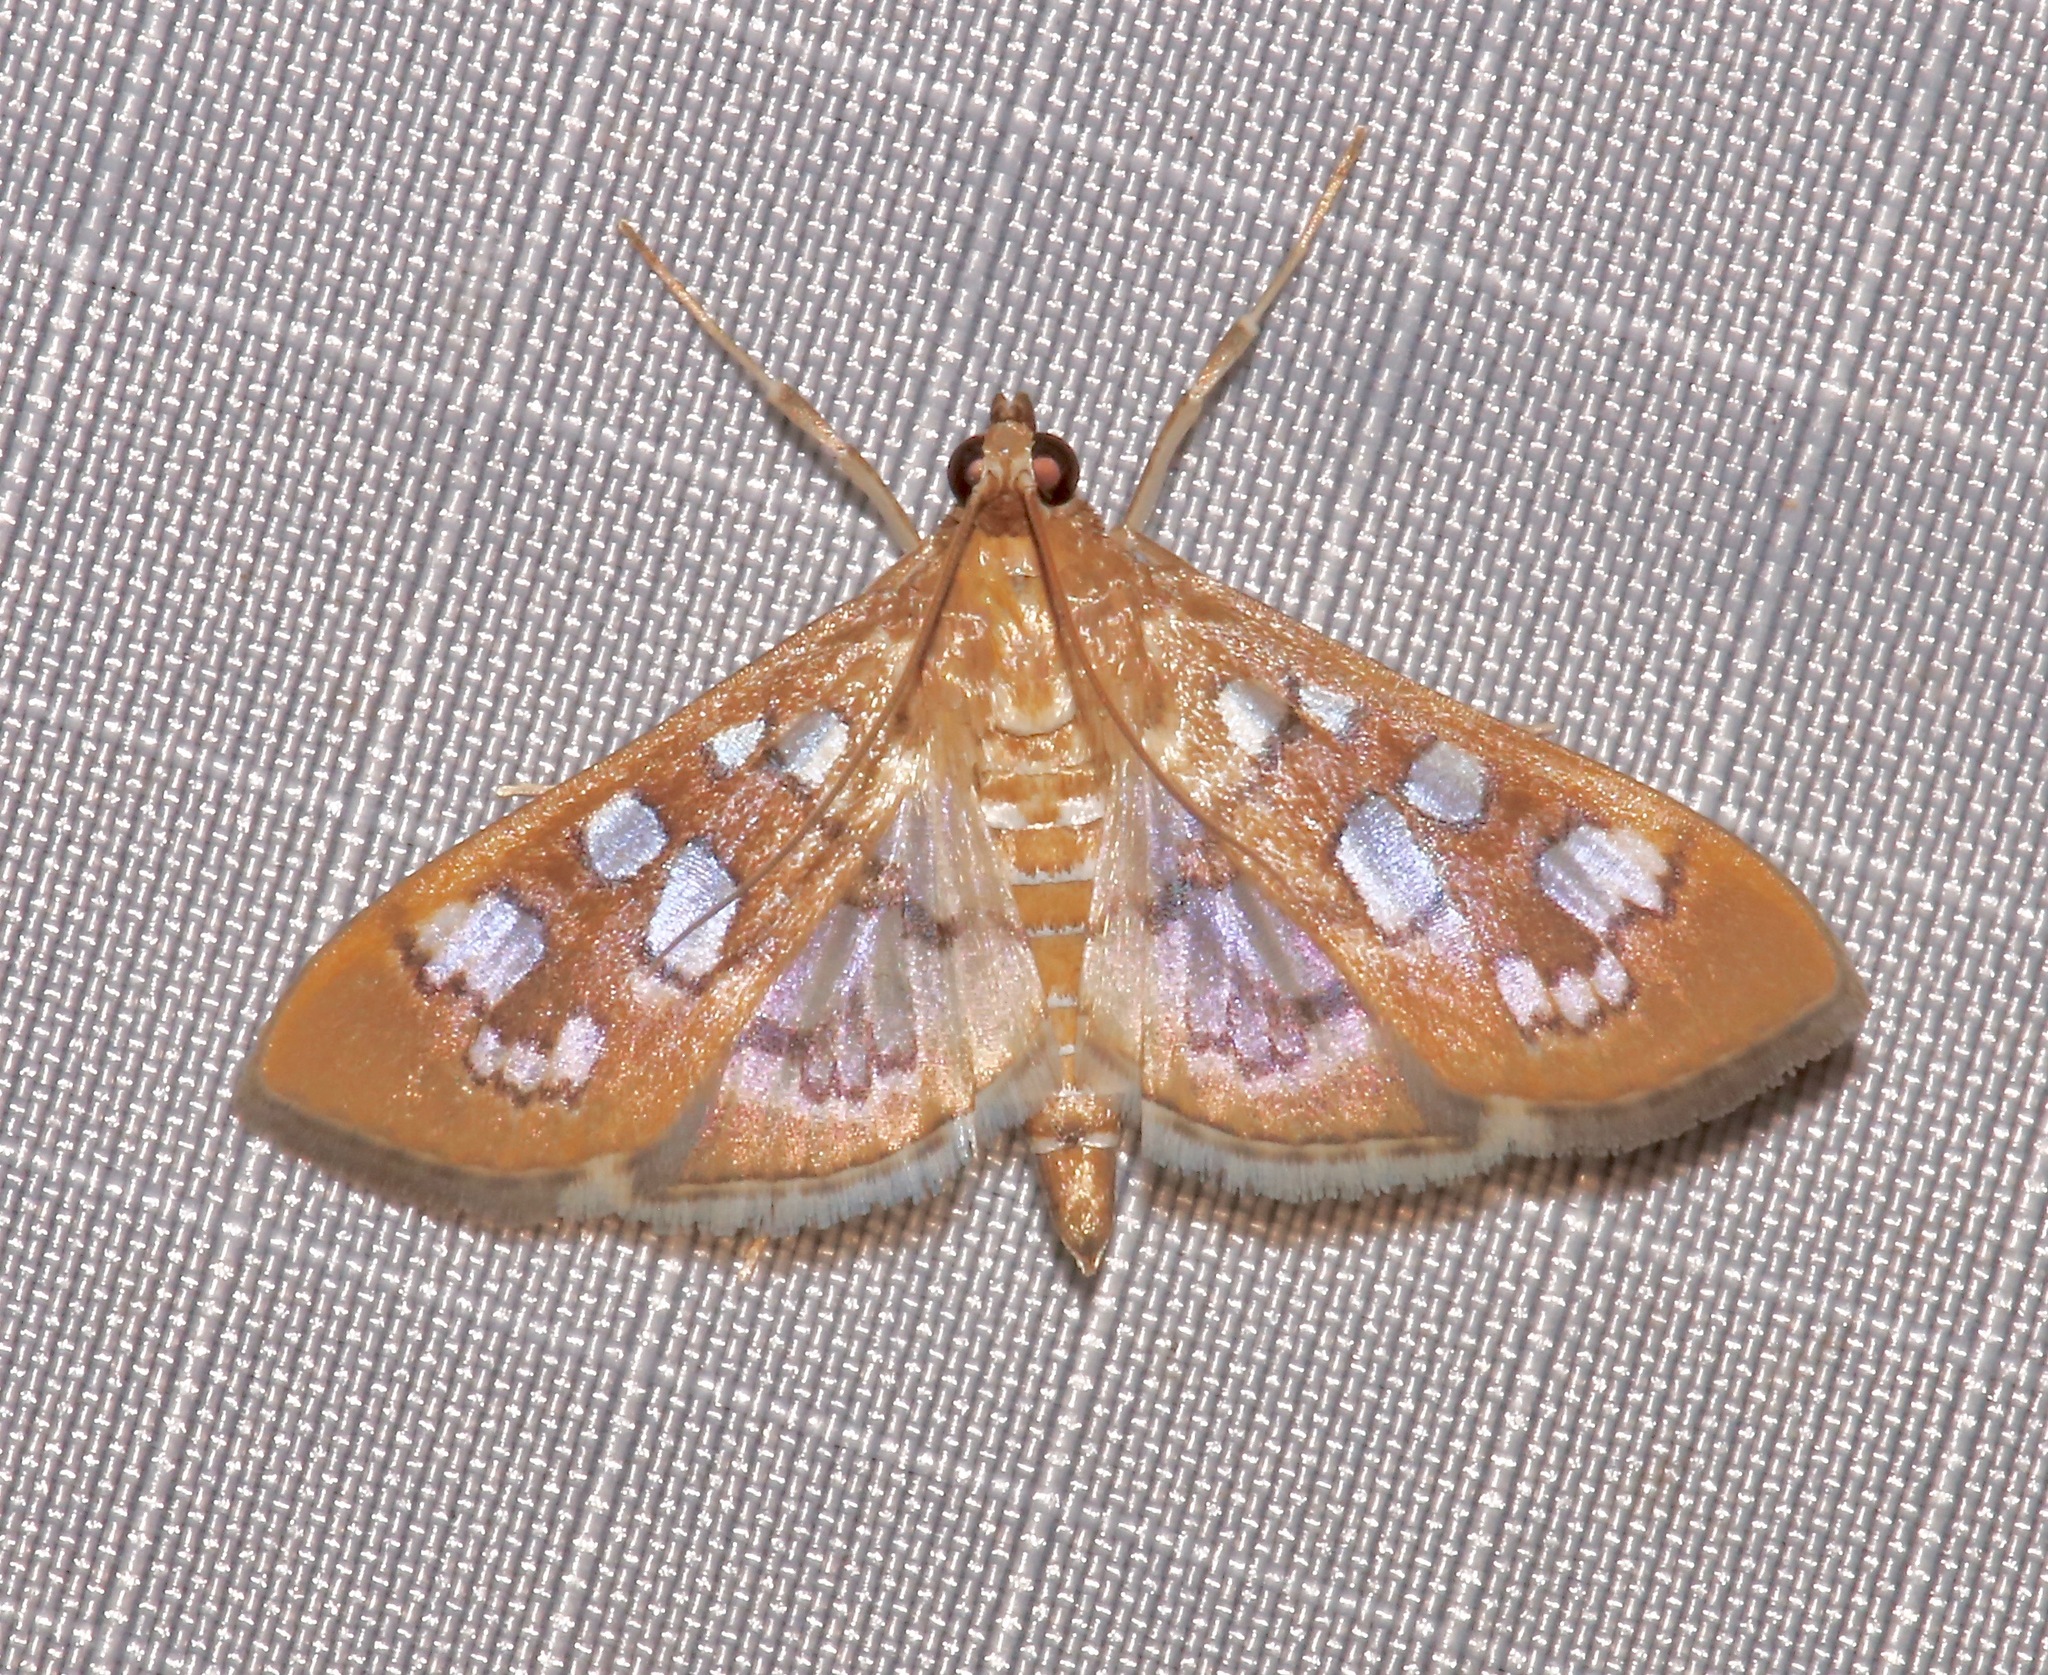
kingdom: Animalia
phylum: Arthropoda
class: Insecta
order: Lepidoptera
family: Crambidae
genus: Samea
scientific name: Samea baccatalis
